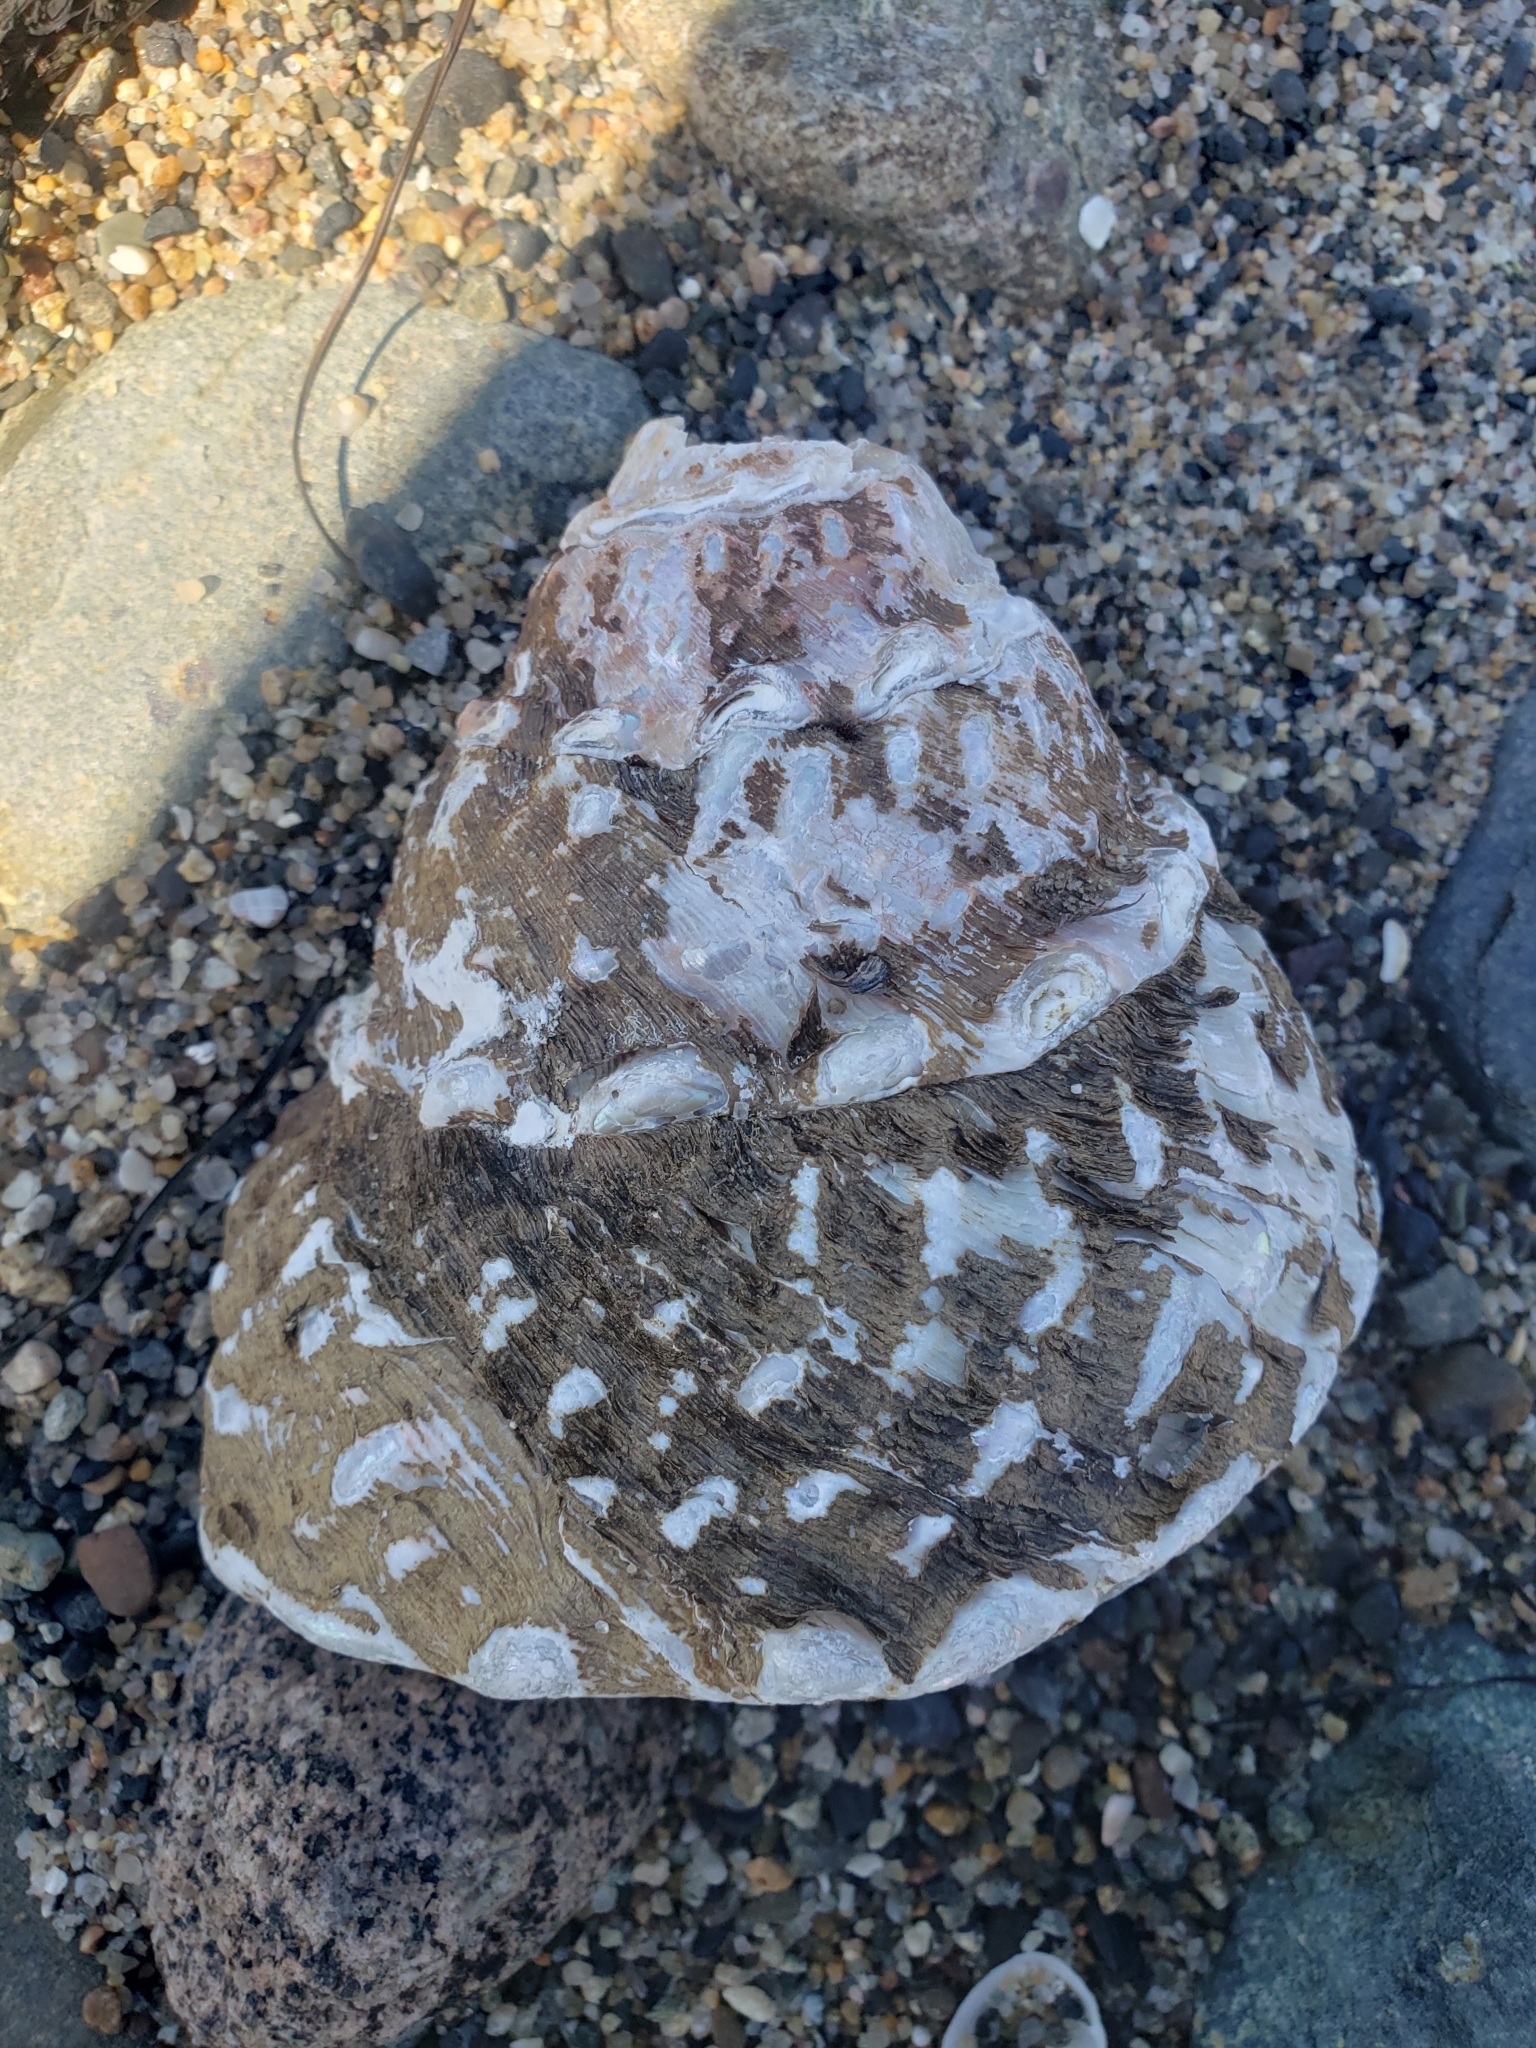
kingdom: Animalia
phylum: Mollusca
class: Gastropoda
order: Trochida
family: Turbinidae
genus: Megastraea
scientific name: Megastraea undosa
